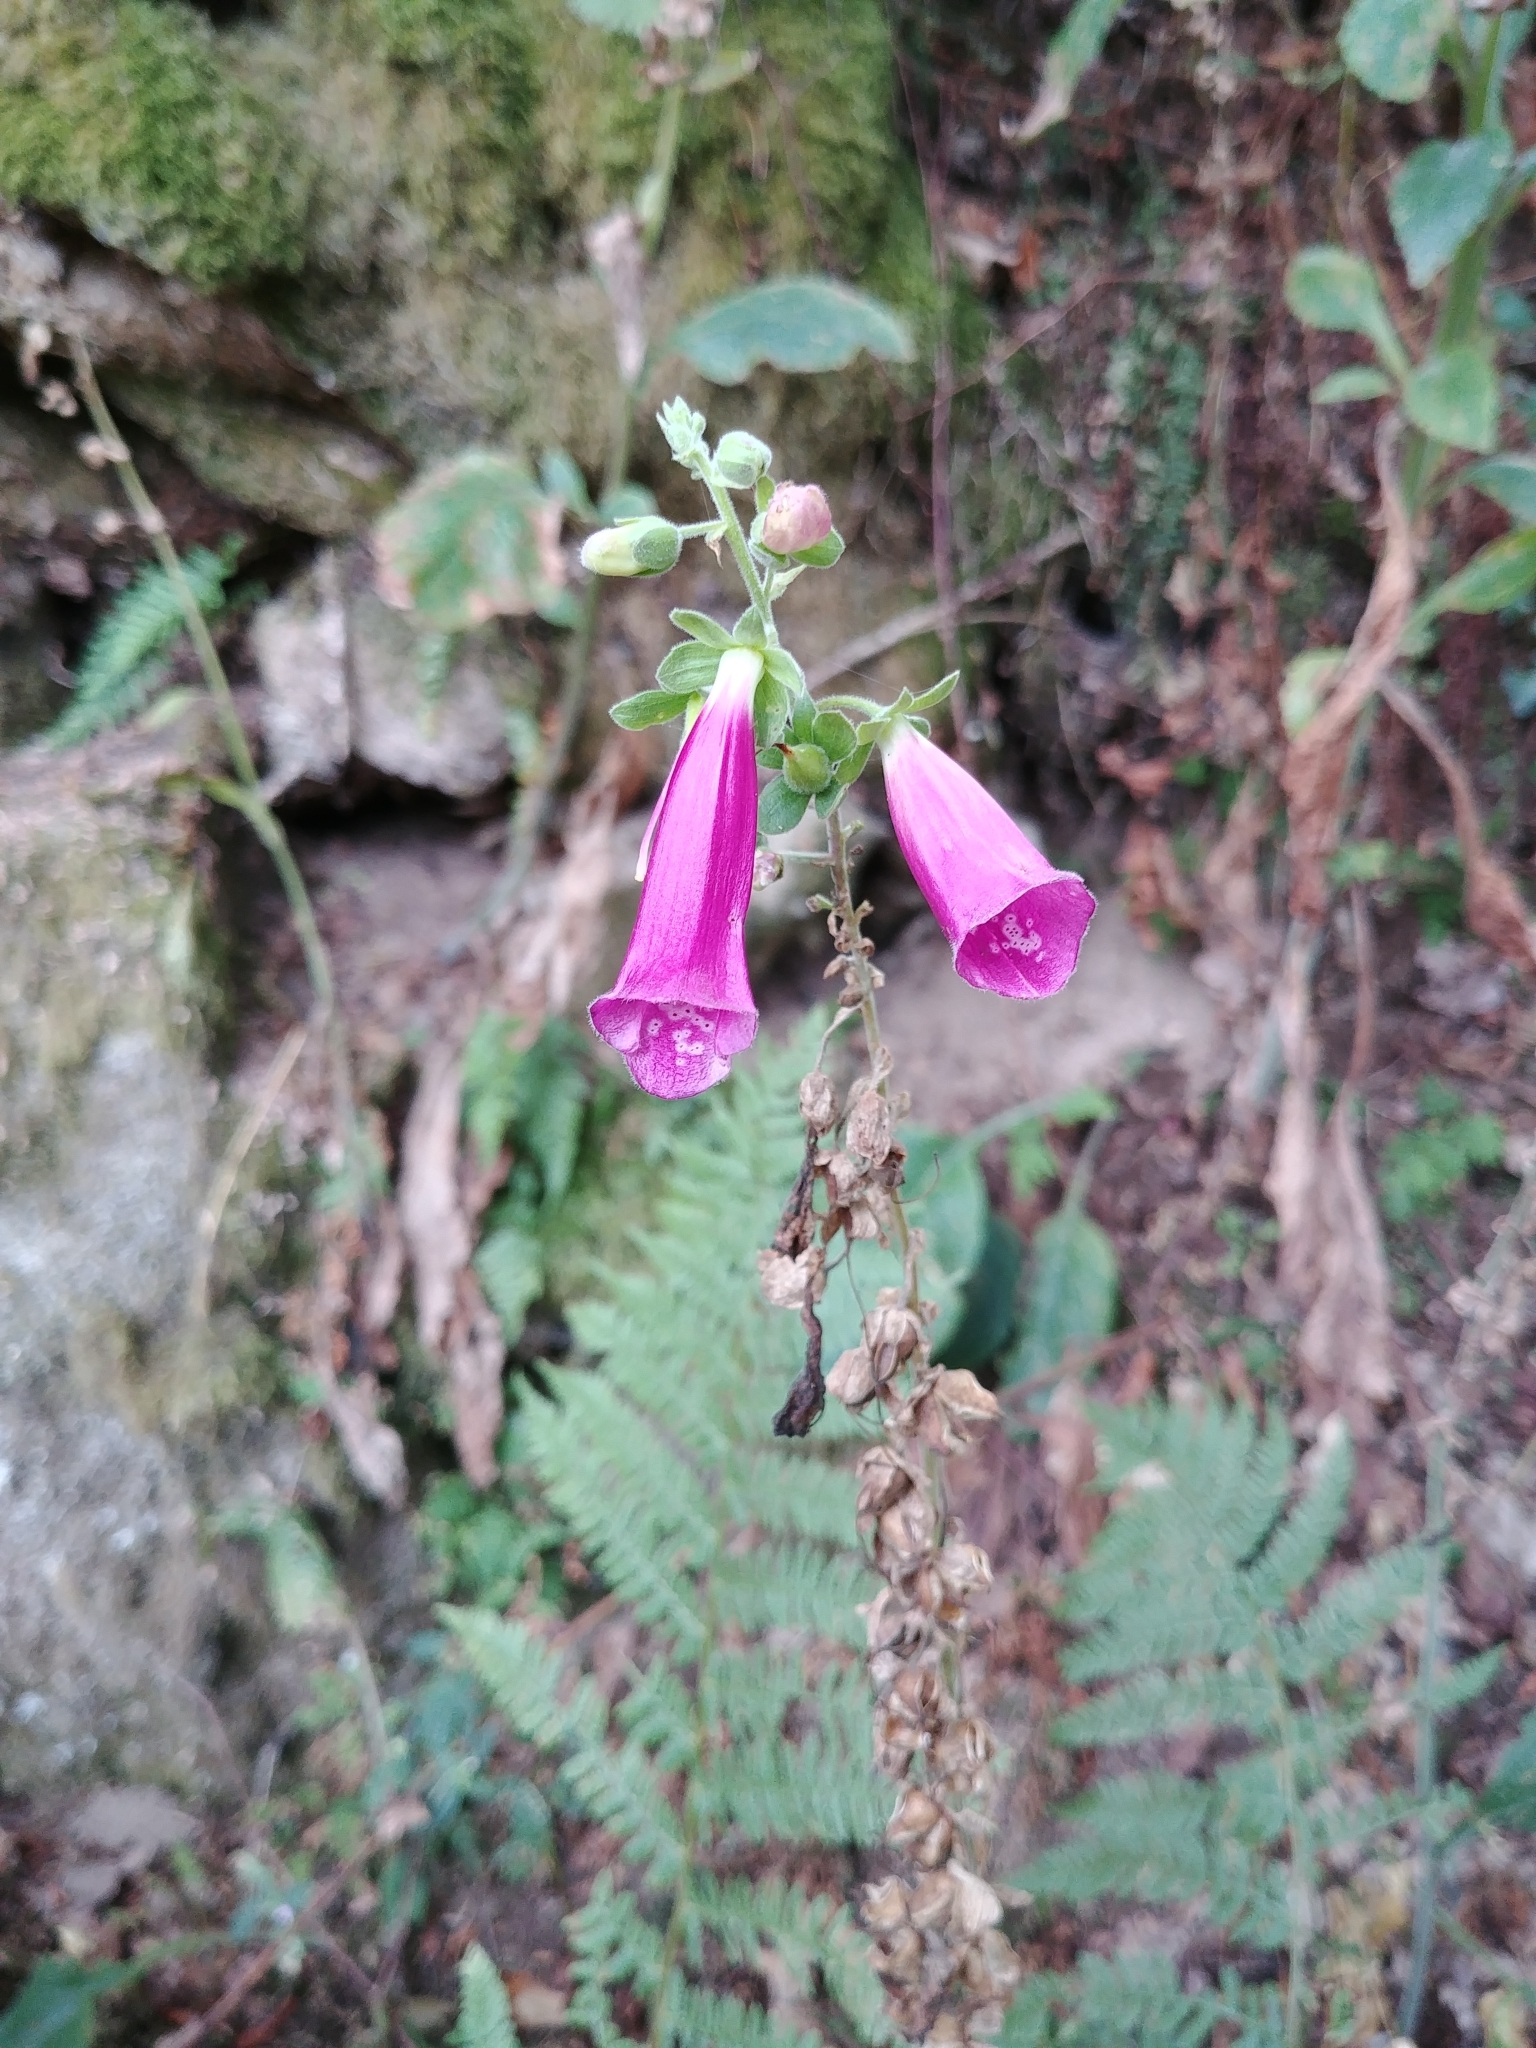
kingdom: Plantae
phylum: Tracheophyta
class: Magnoliopsida
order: Lamiales
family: Plantaginaceae
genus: Digitalis
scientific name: Digitalis purpurea
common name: Foxglove
